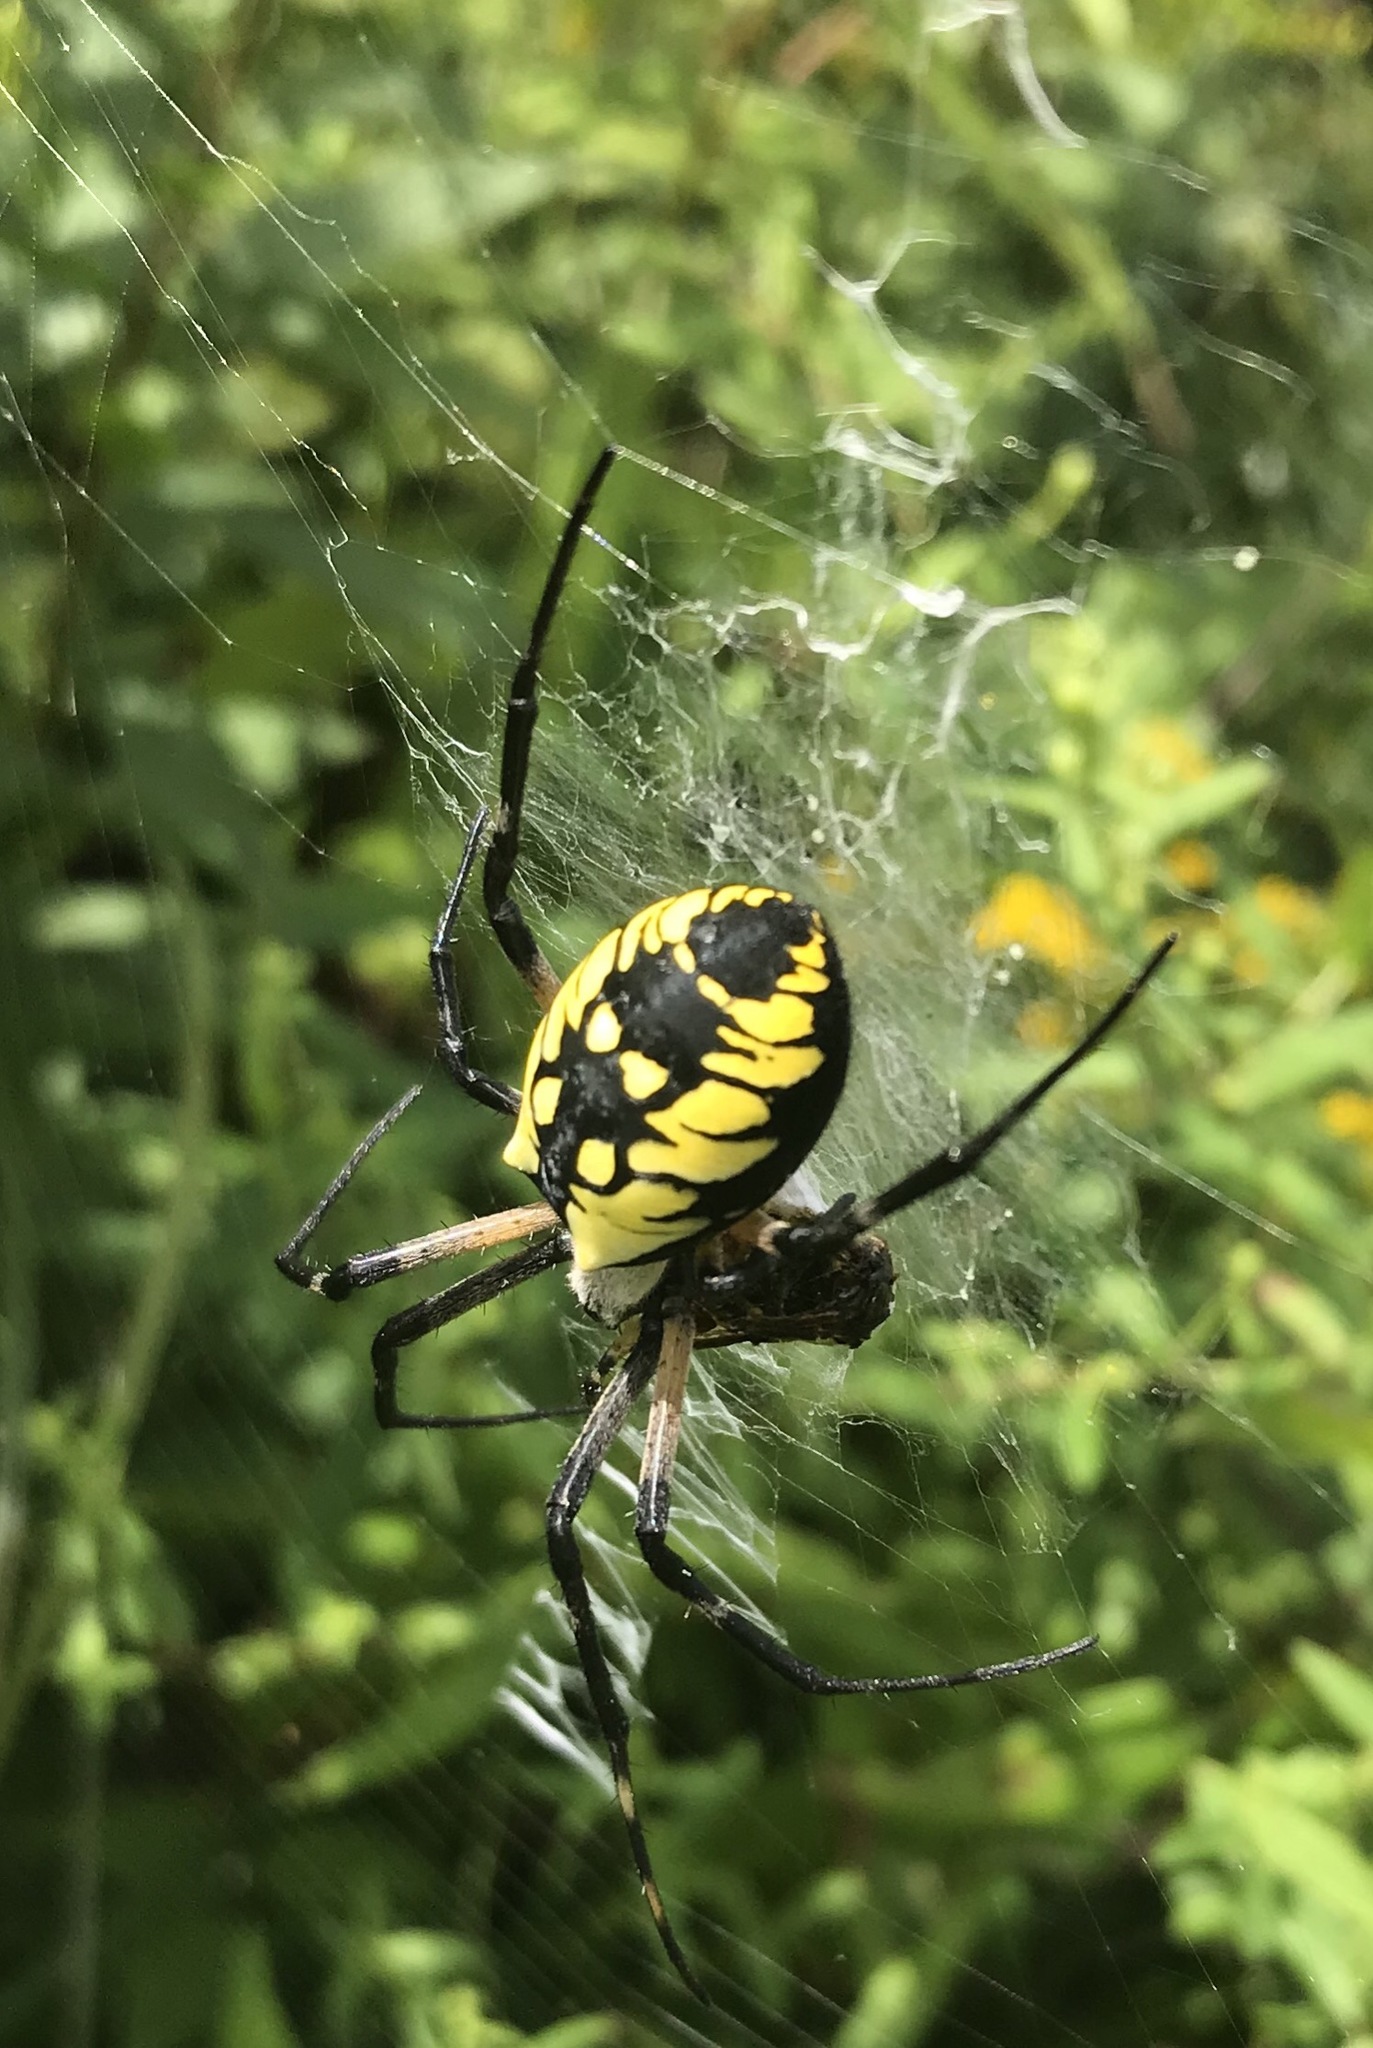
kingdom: Animalia
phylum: Arthropoda
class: Arachnida
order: Araneae
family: Araneidae
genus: Argiope
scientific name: Argiope aurantia
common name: Orb weavers
